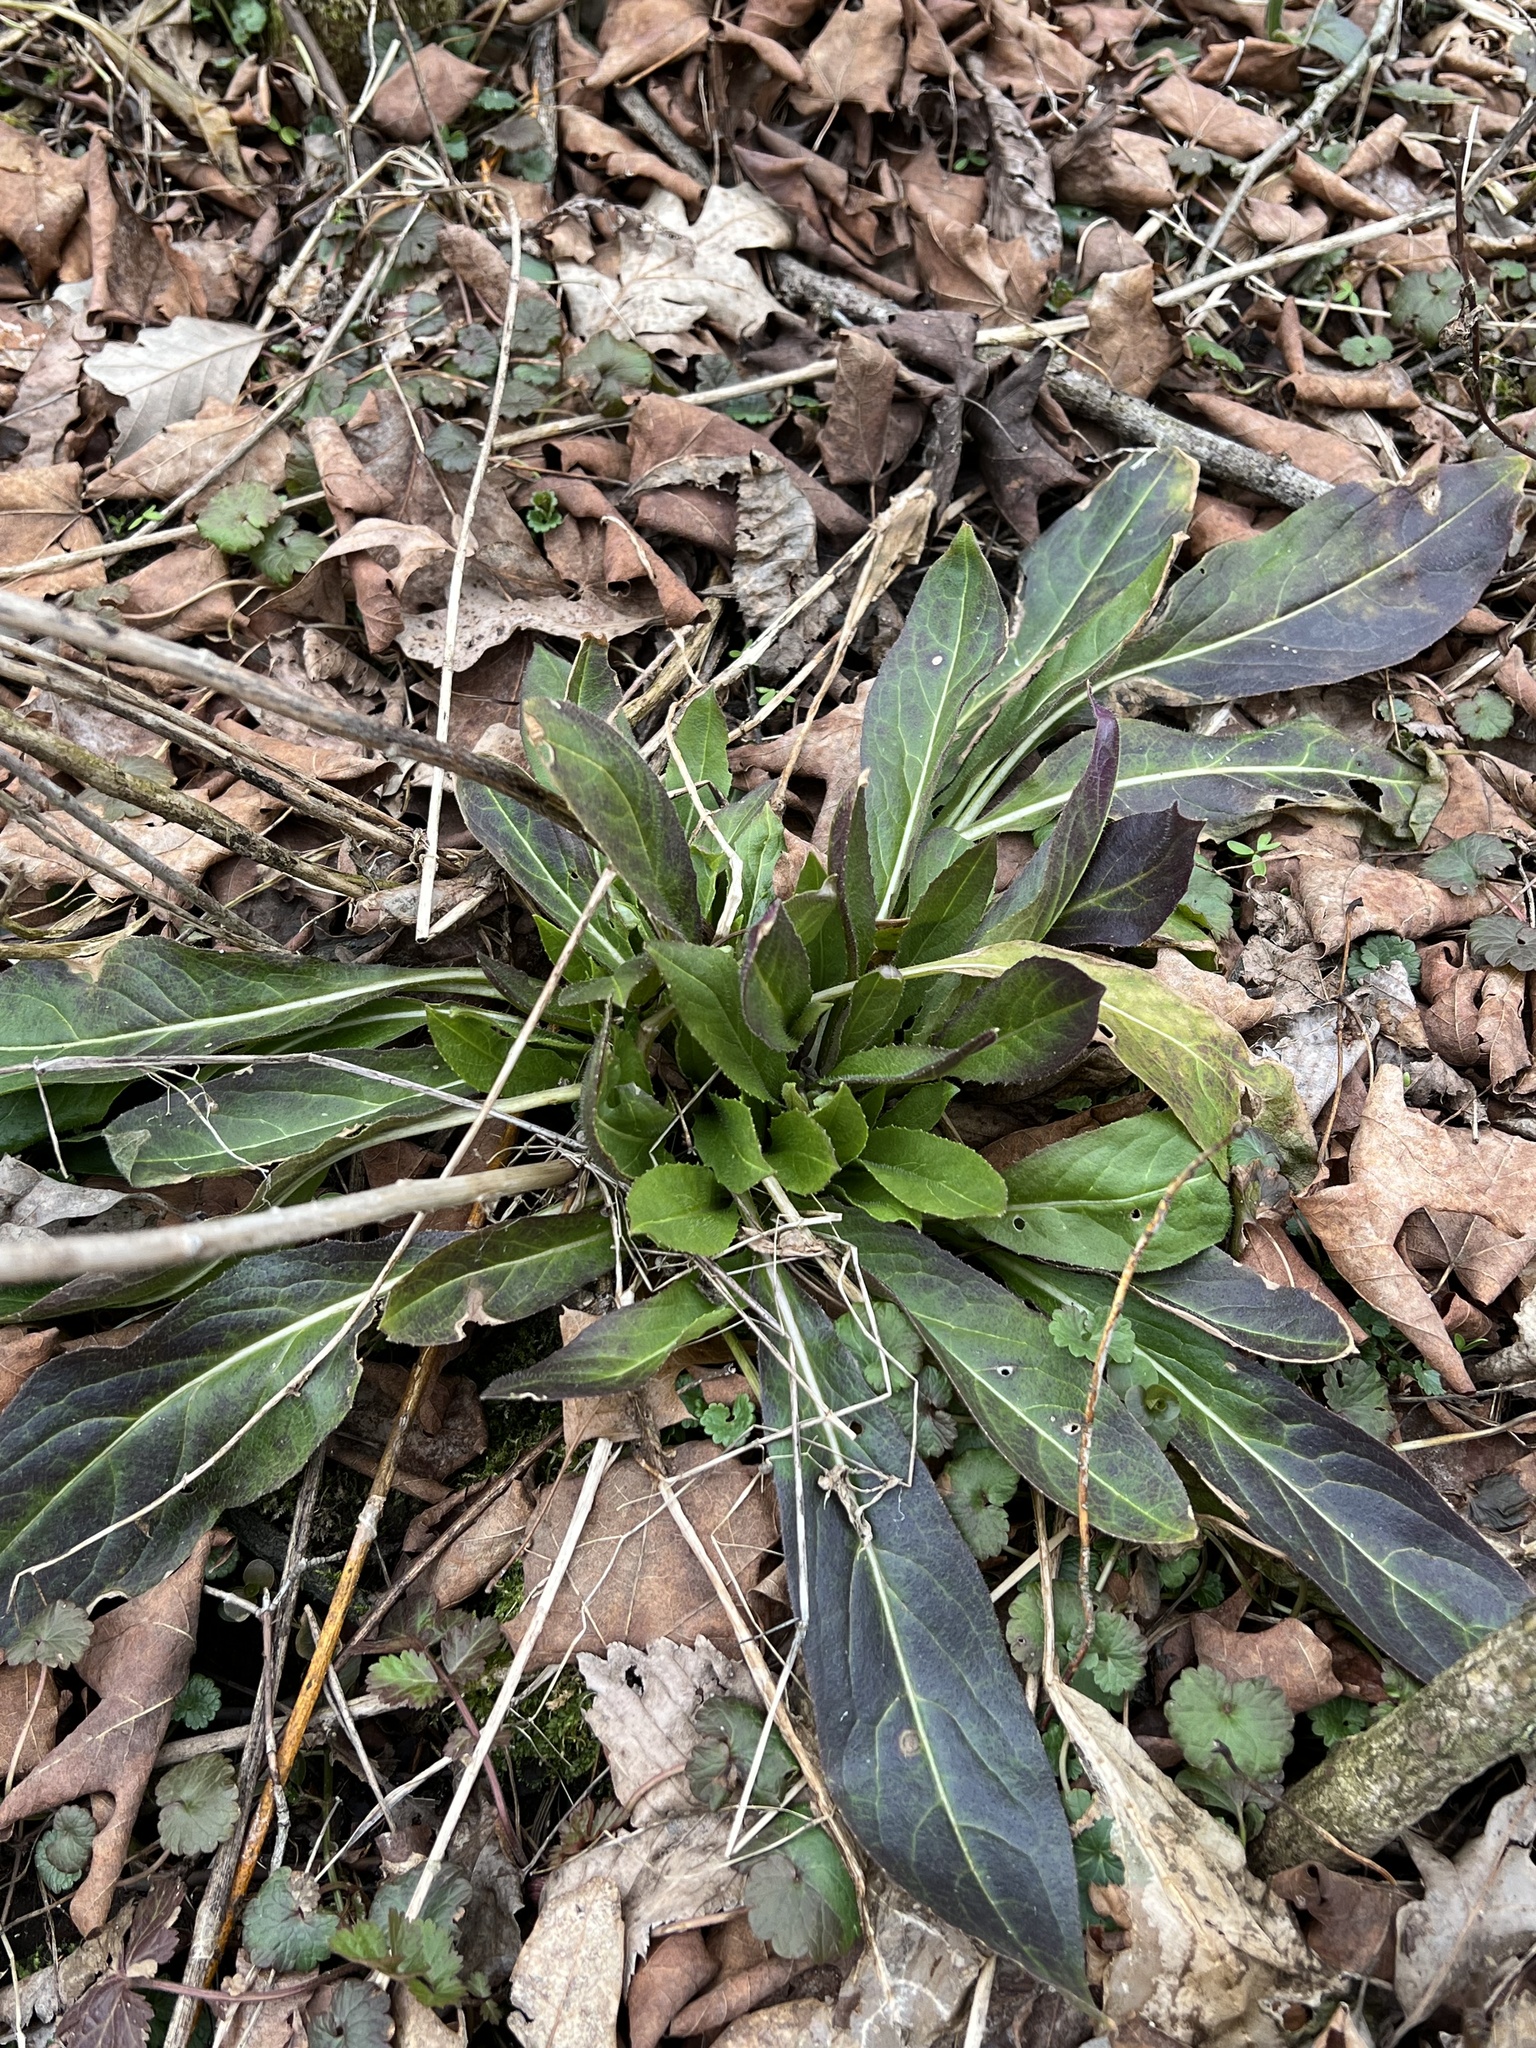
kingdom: Plantae
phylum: Tracheophyta
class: Magnoliopsida
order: Brassicales
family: Brassicaceae
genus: Hesperis
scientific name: Hesperis matronalis
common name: Dame's-violet
